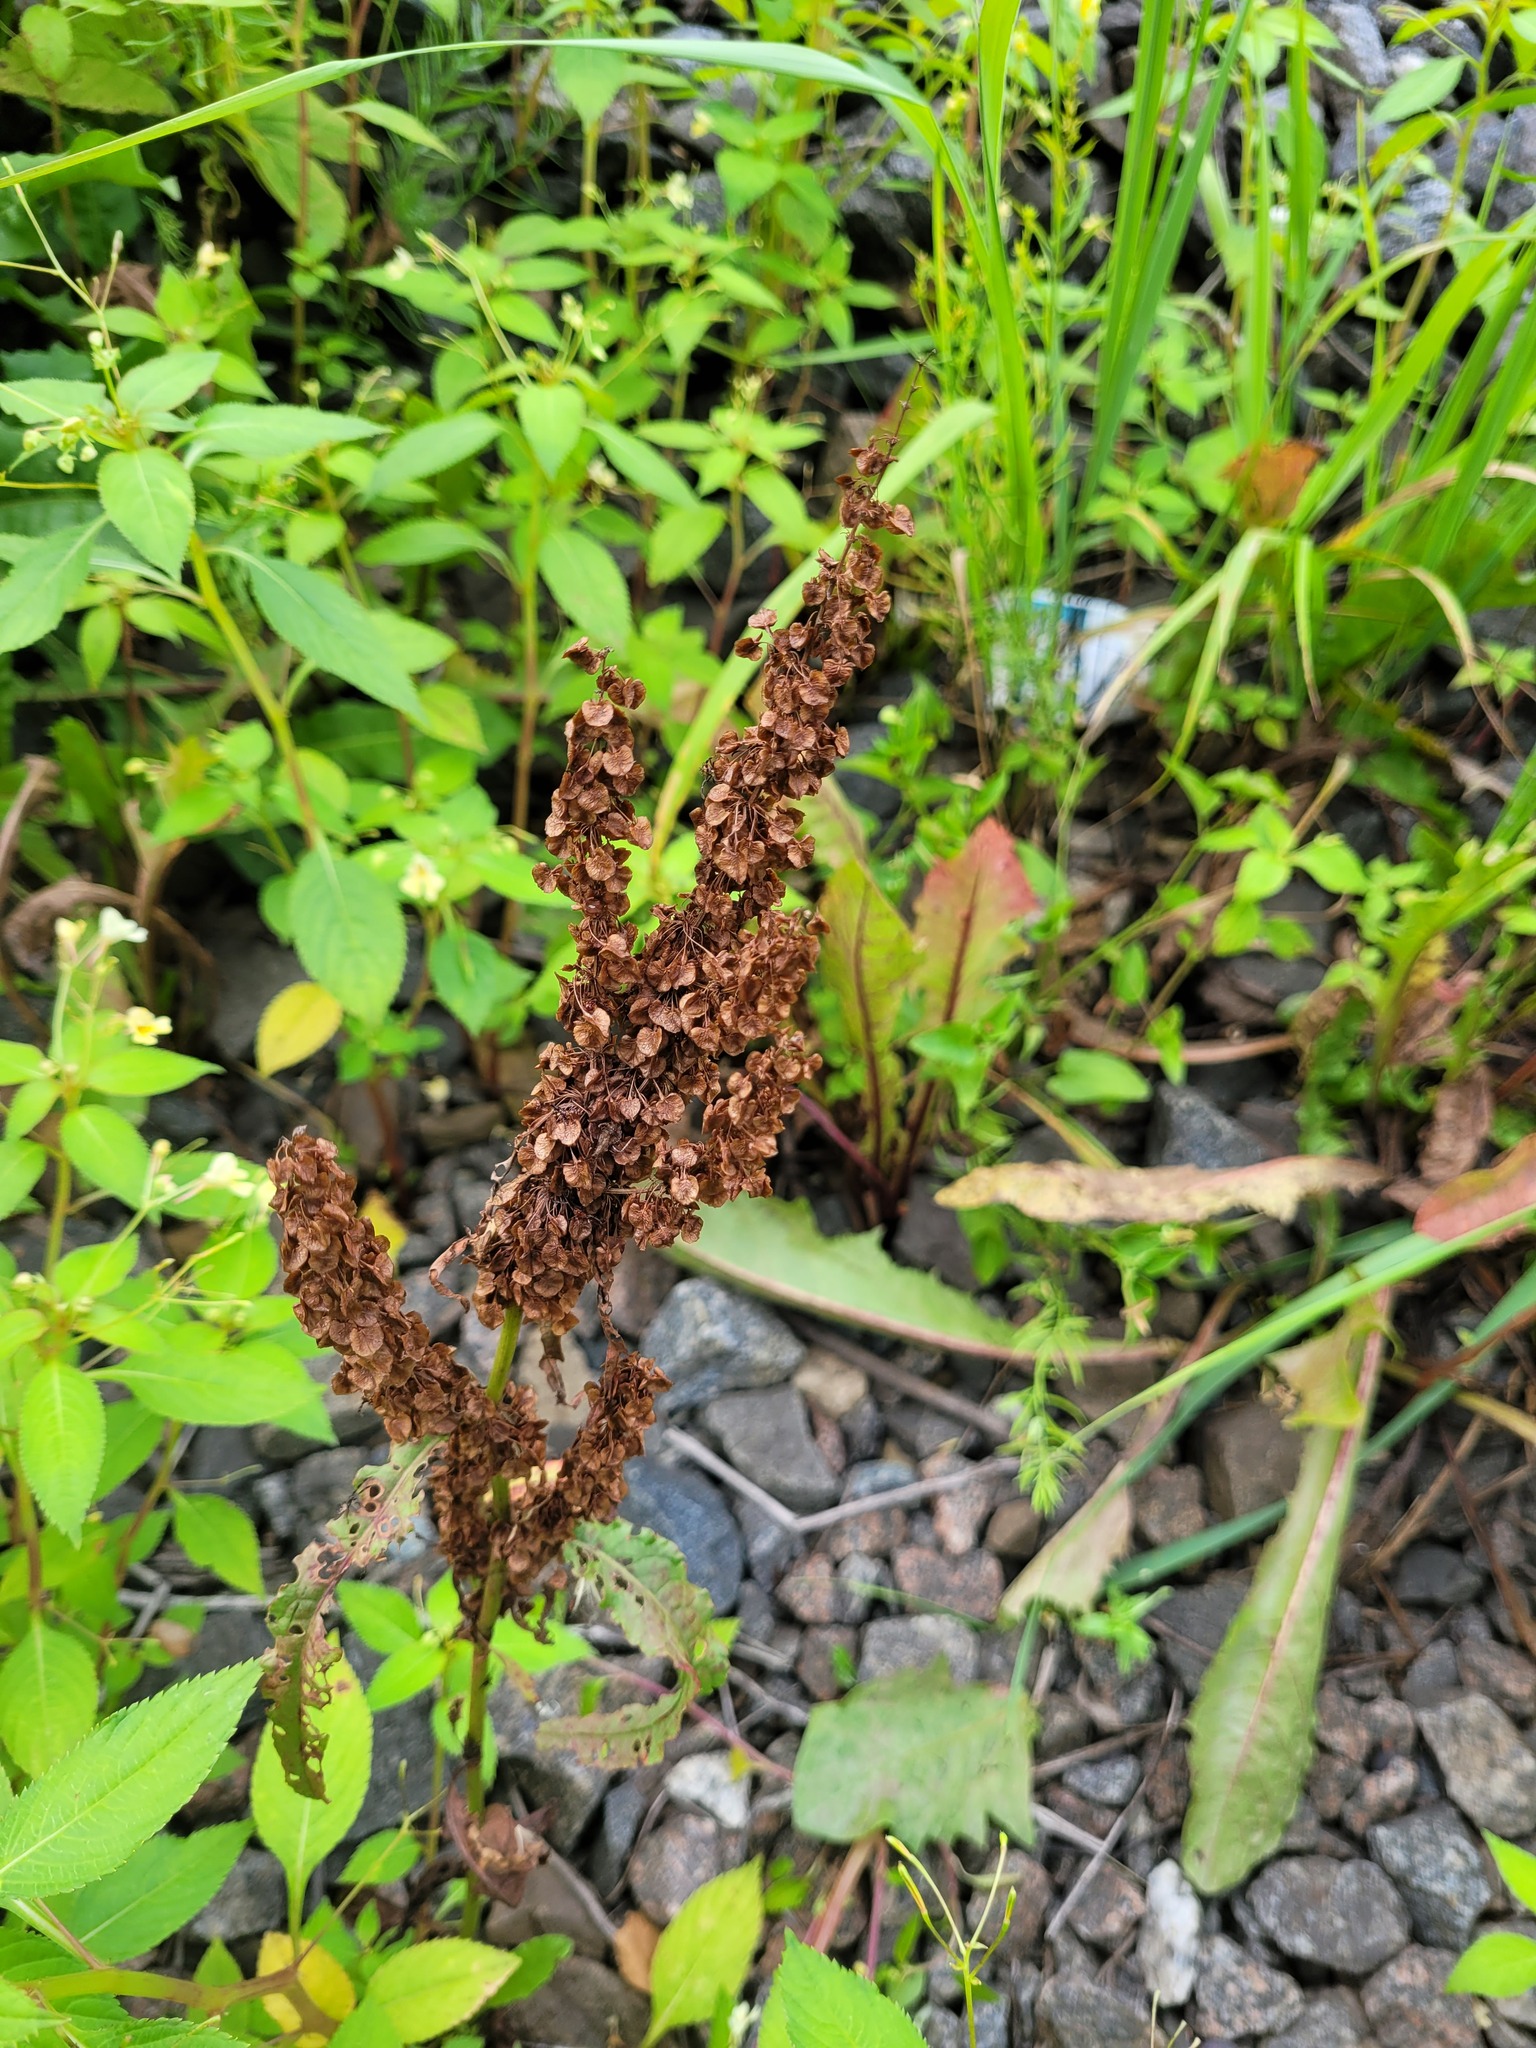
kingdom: Plantae
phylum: Tracheophyta
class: Magnoliopsida
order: Caryophyllales
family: Polygonaceae
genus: Rumex
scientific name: Rumex longifolius
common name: Dooryard dock
